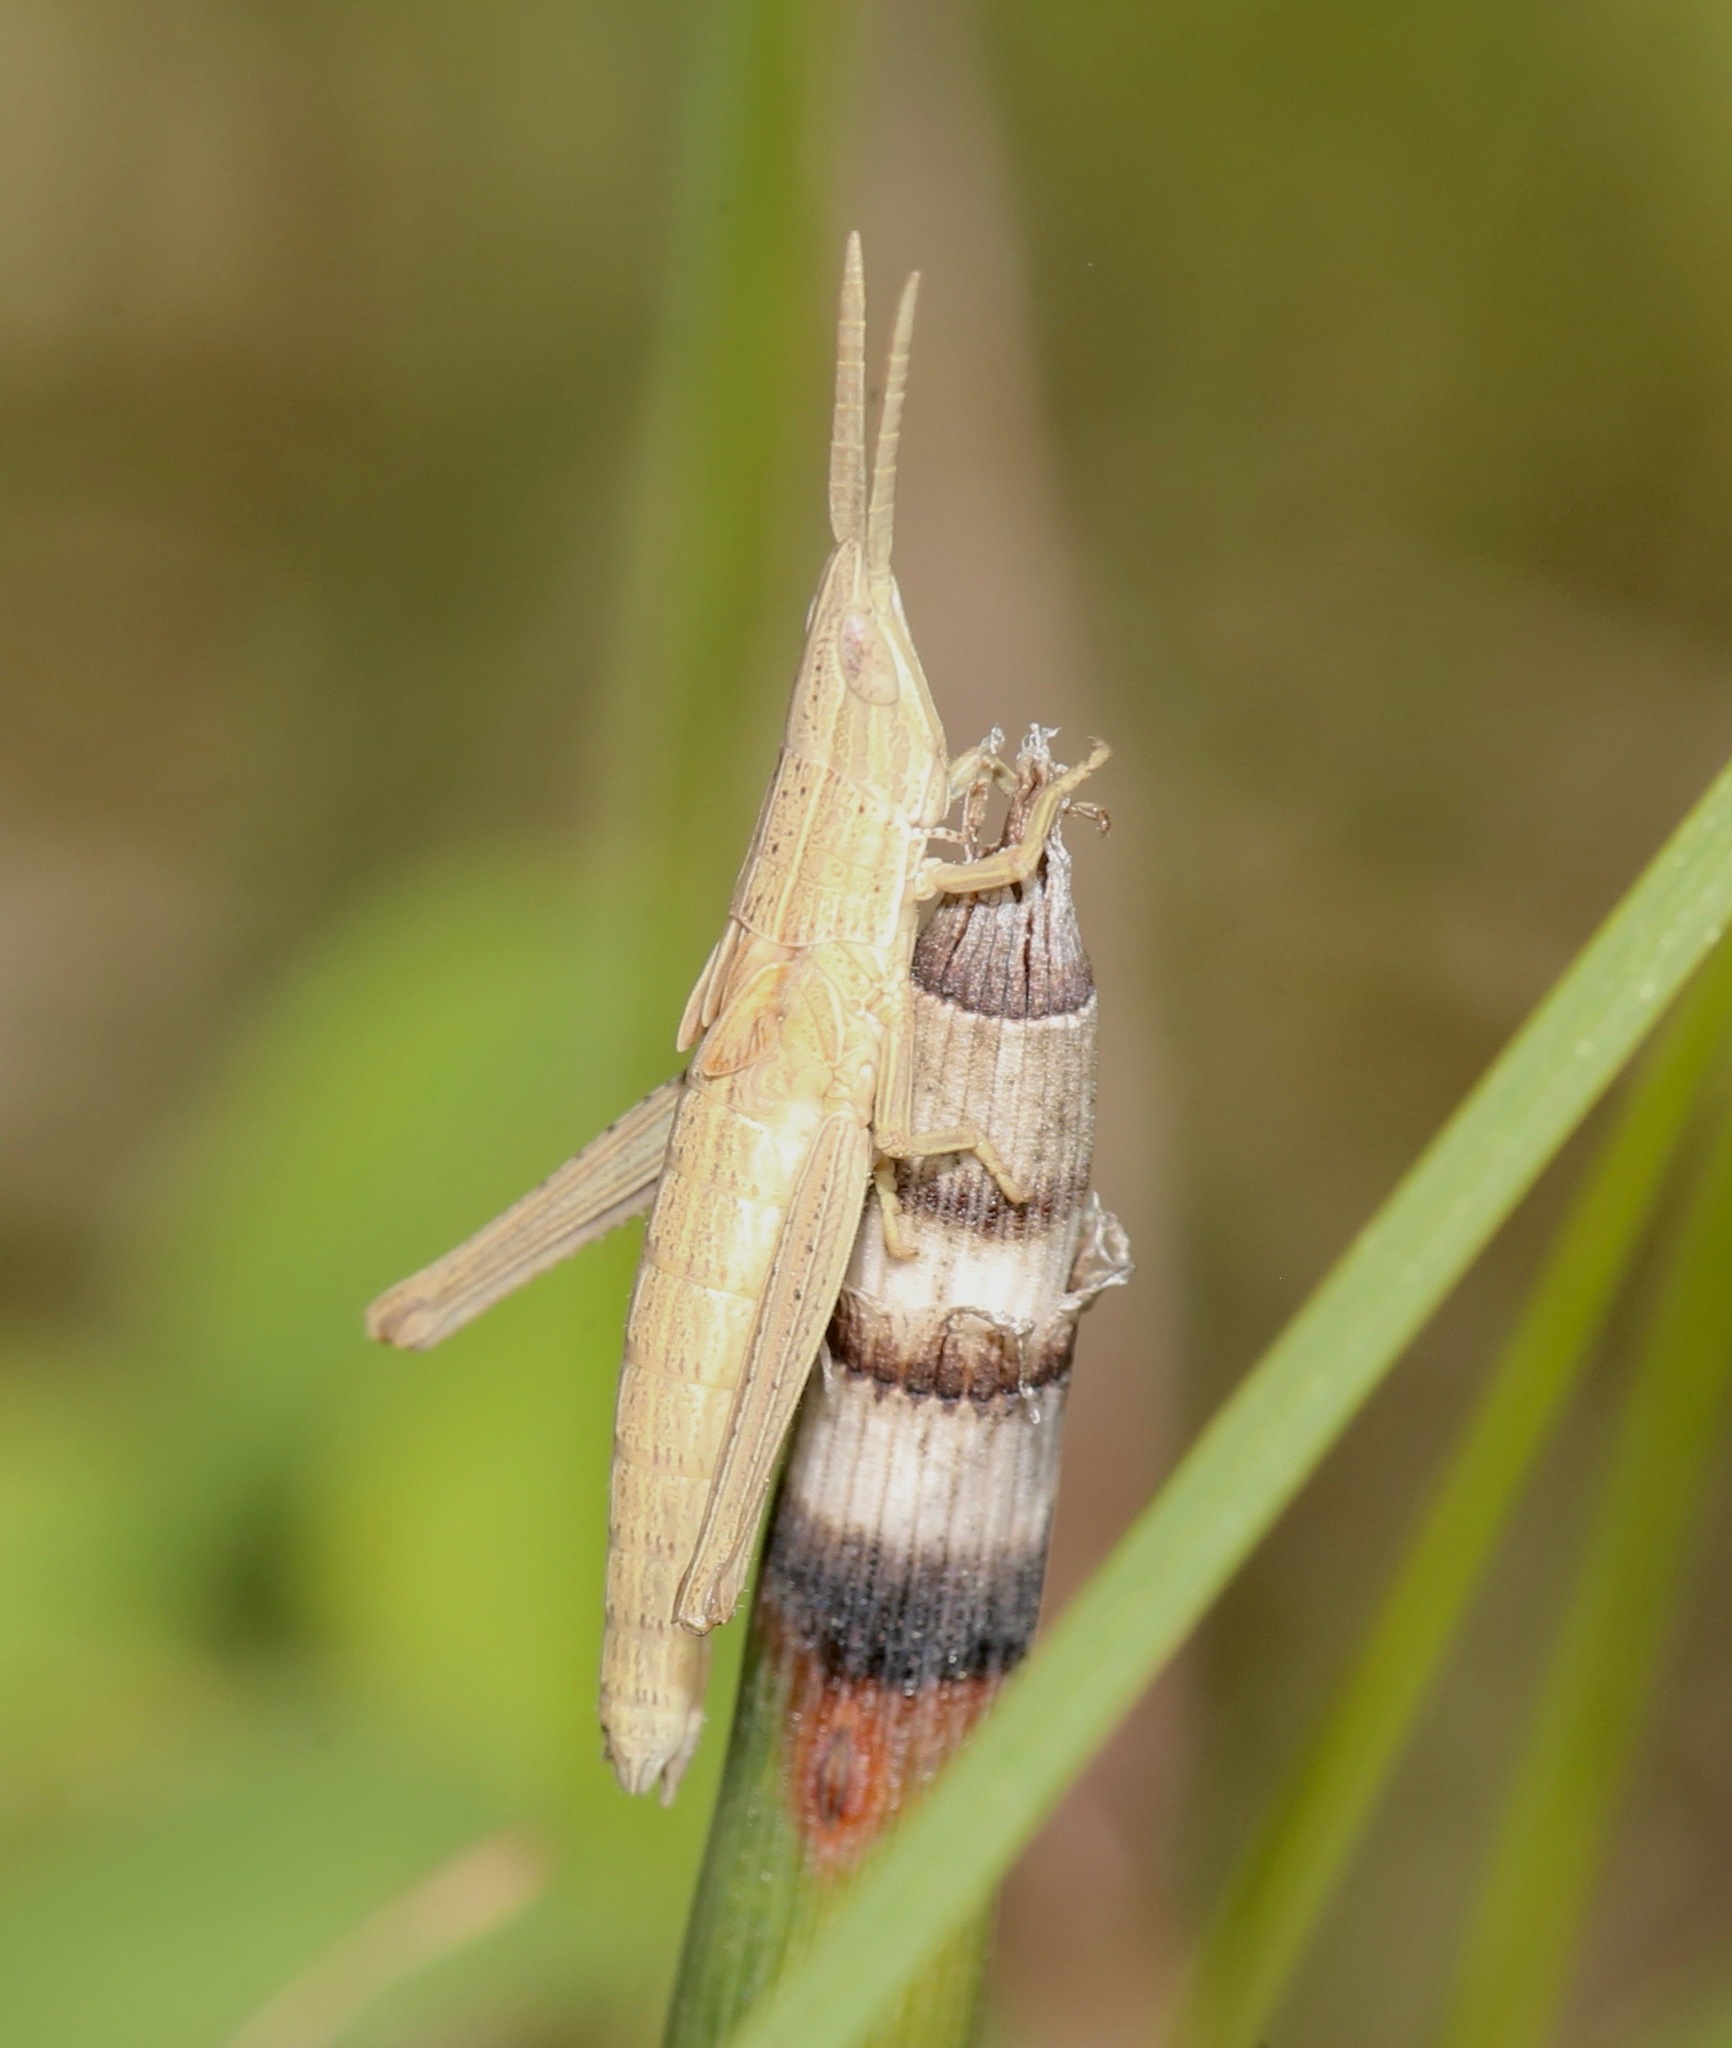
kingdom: Animalia
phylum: Arthropoda
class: Insecta
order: Orthoptera
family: Acrididae
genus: Pseudopomala
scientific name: Pseudopomala brachyptera
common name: Bunchgrass grasshopper
